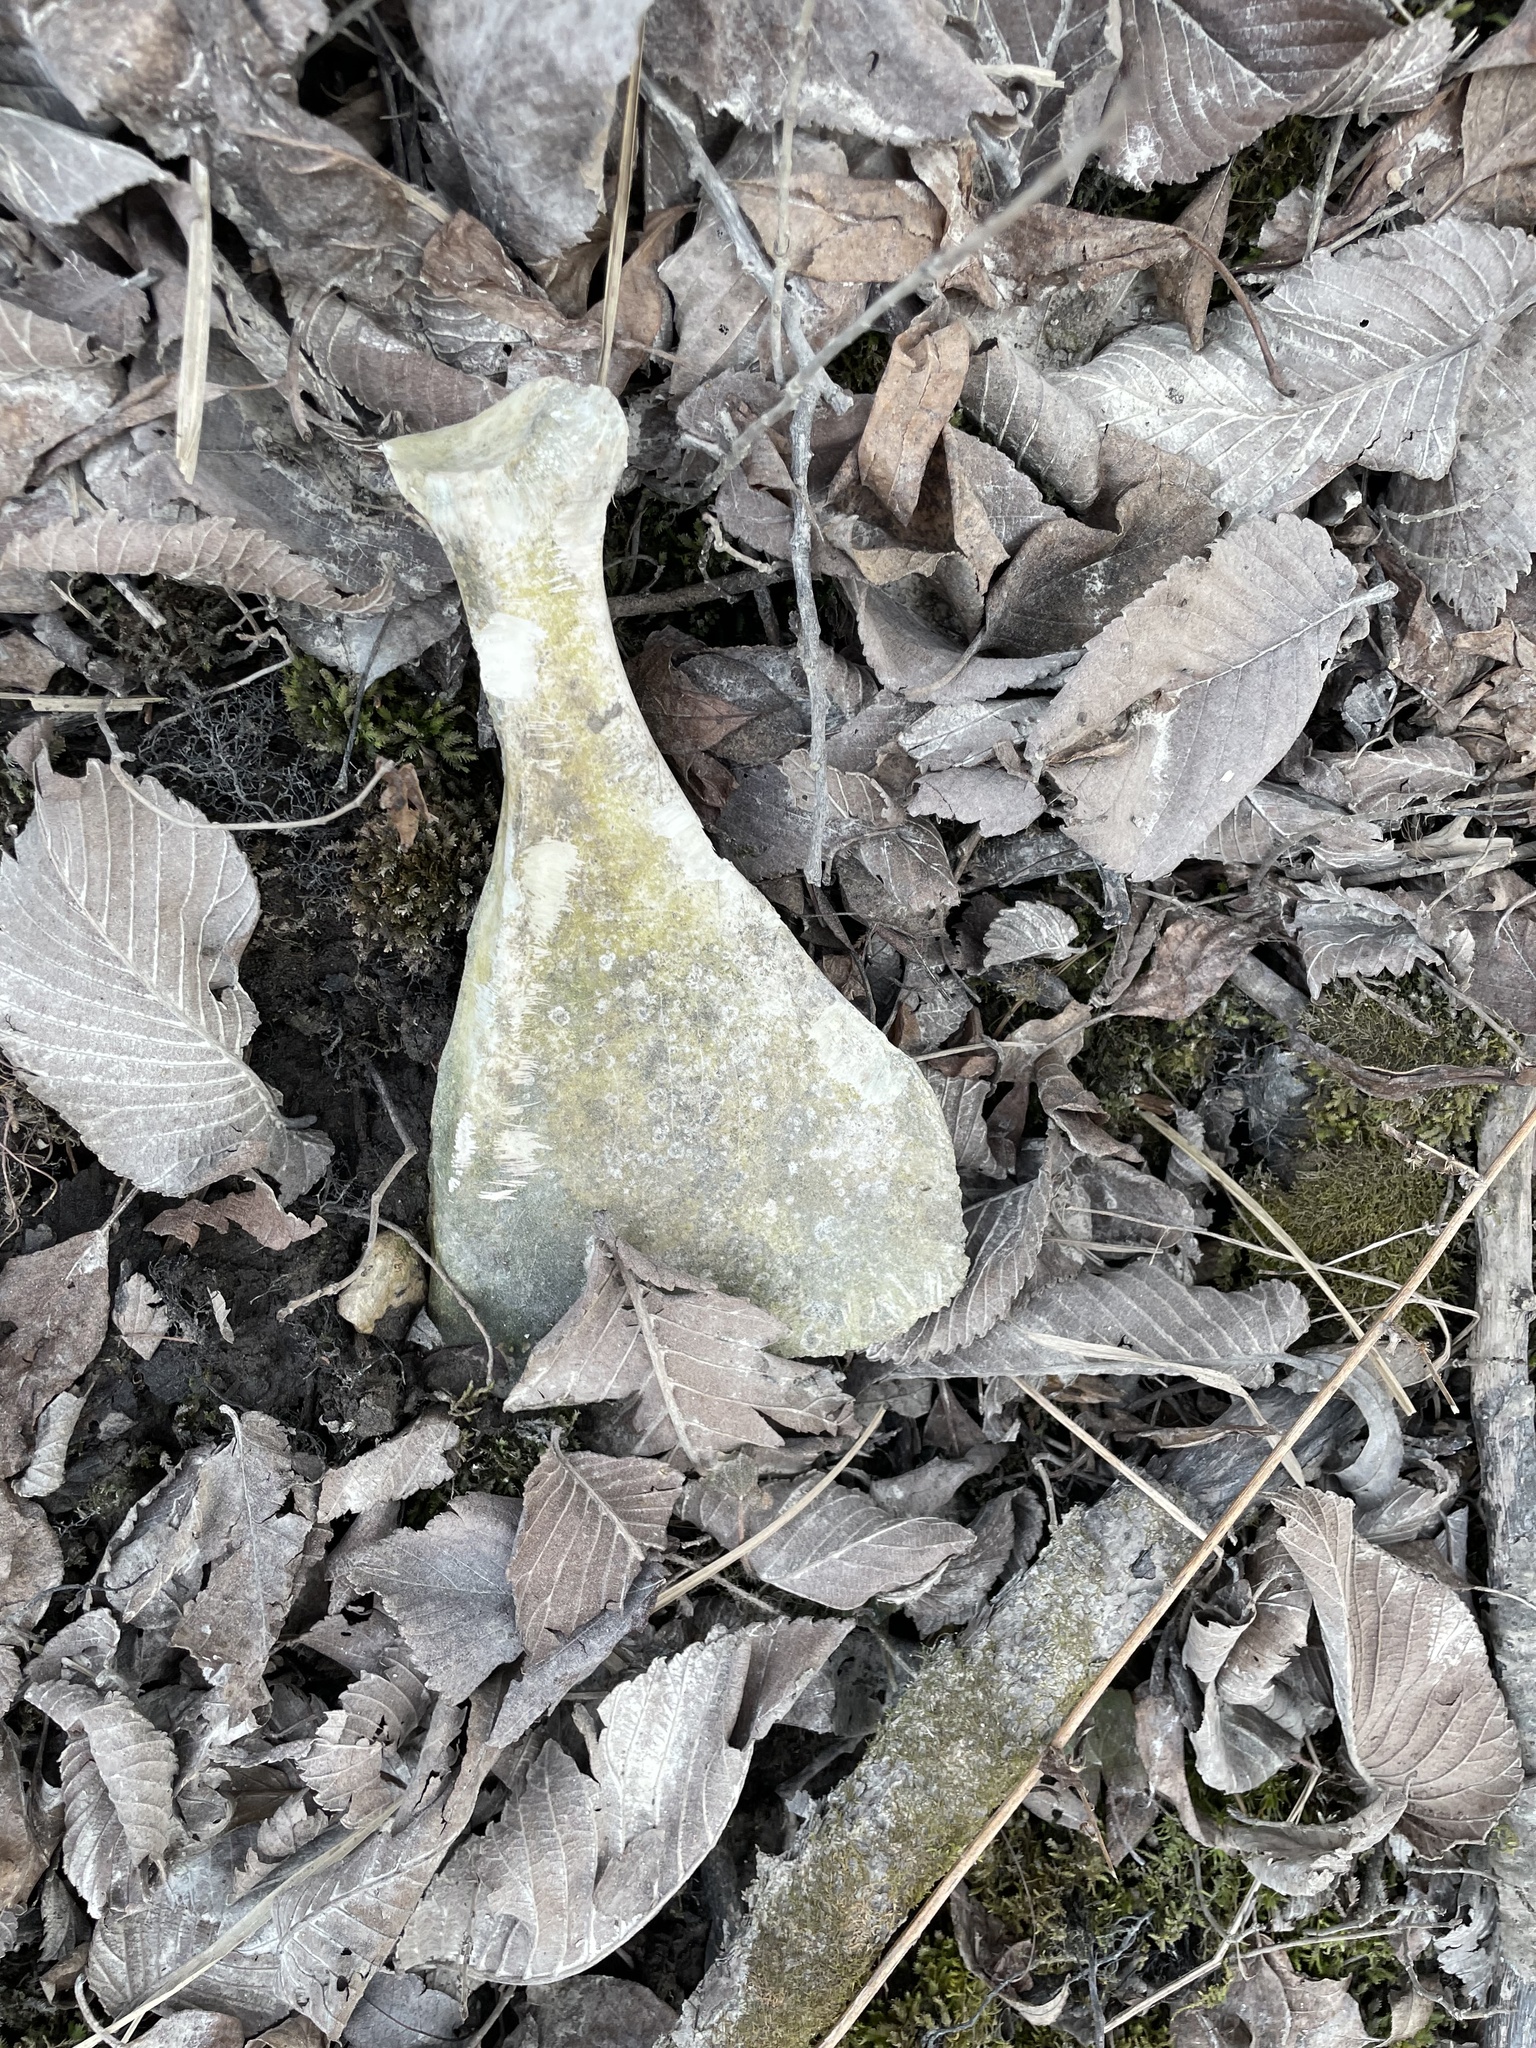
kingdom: Animalia
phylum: Chordata
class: Mammalia
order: Artiodactyla
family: Cervidae
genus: Odocoileus
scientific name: Odocoileus virginianus
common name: White-tailed deer
